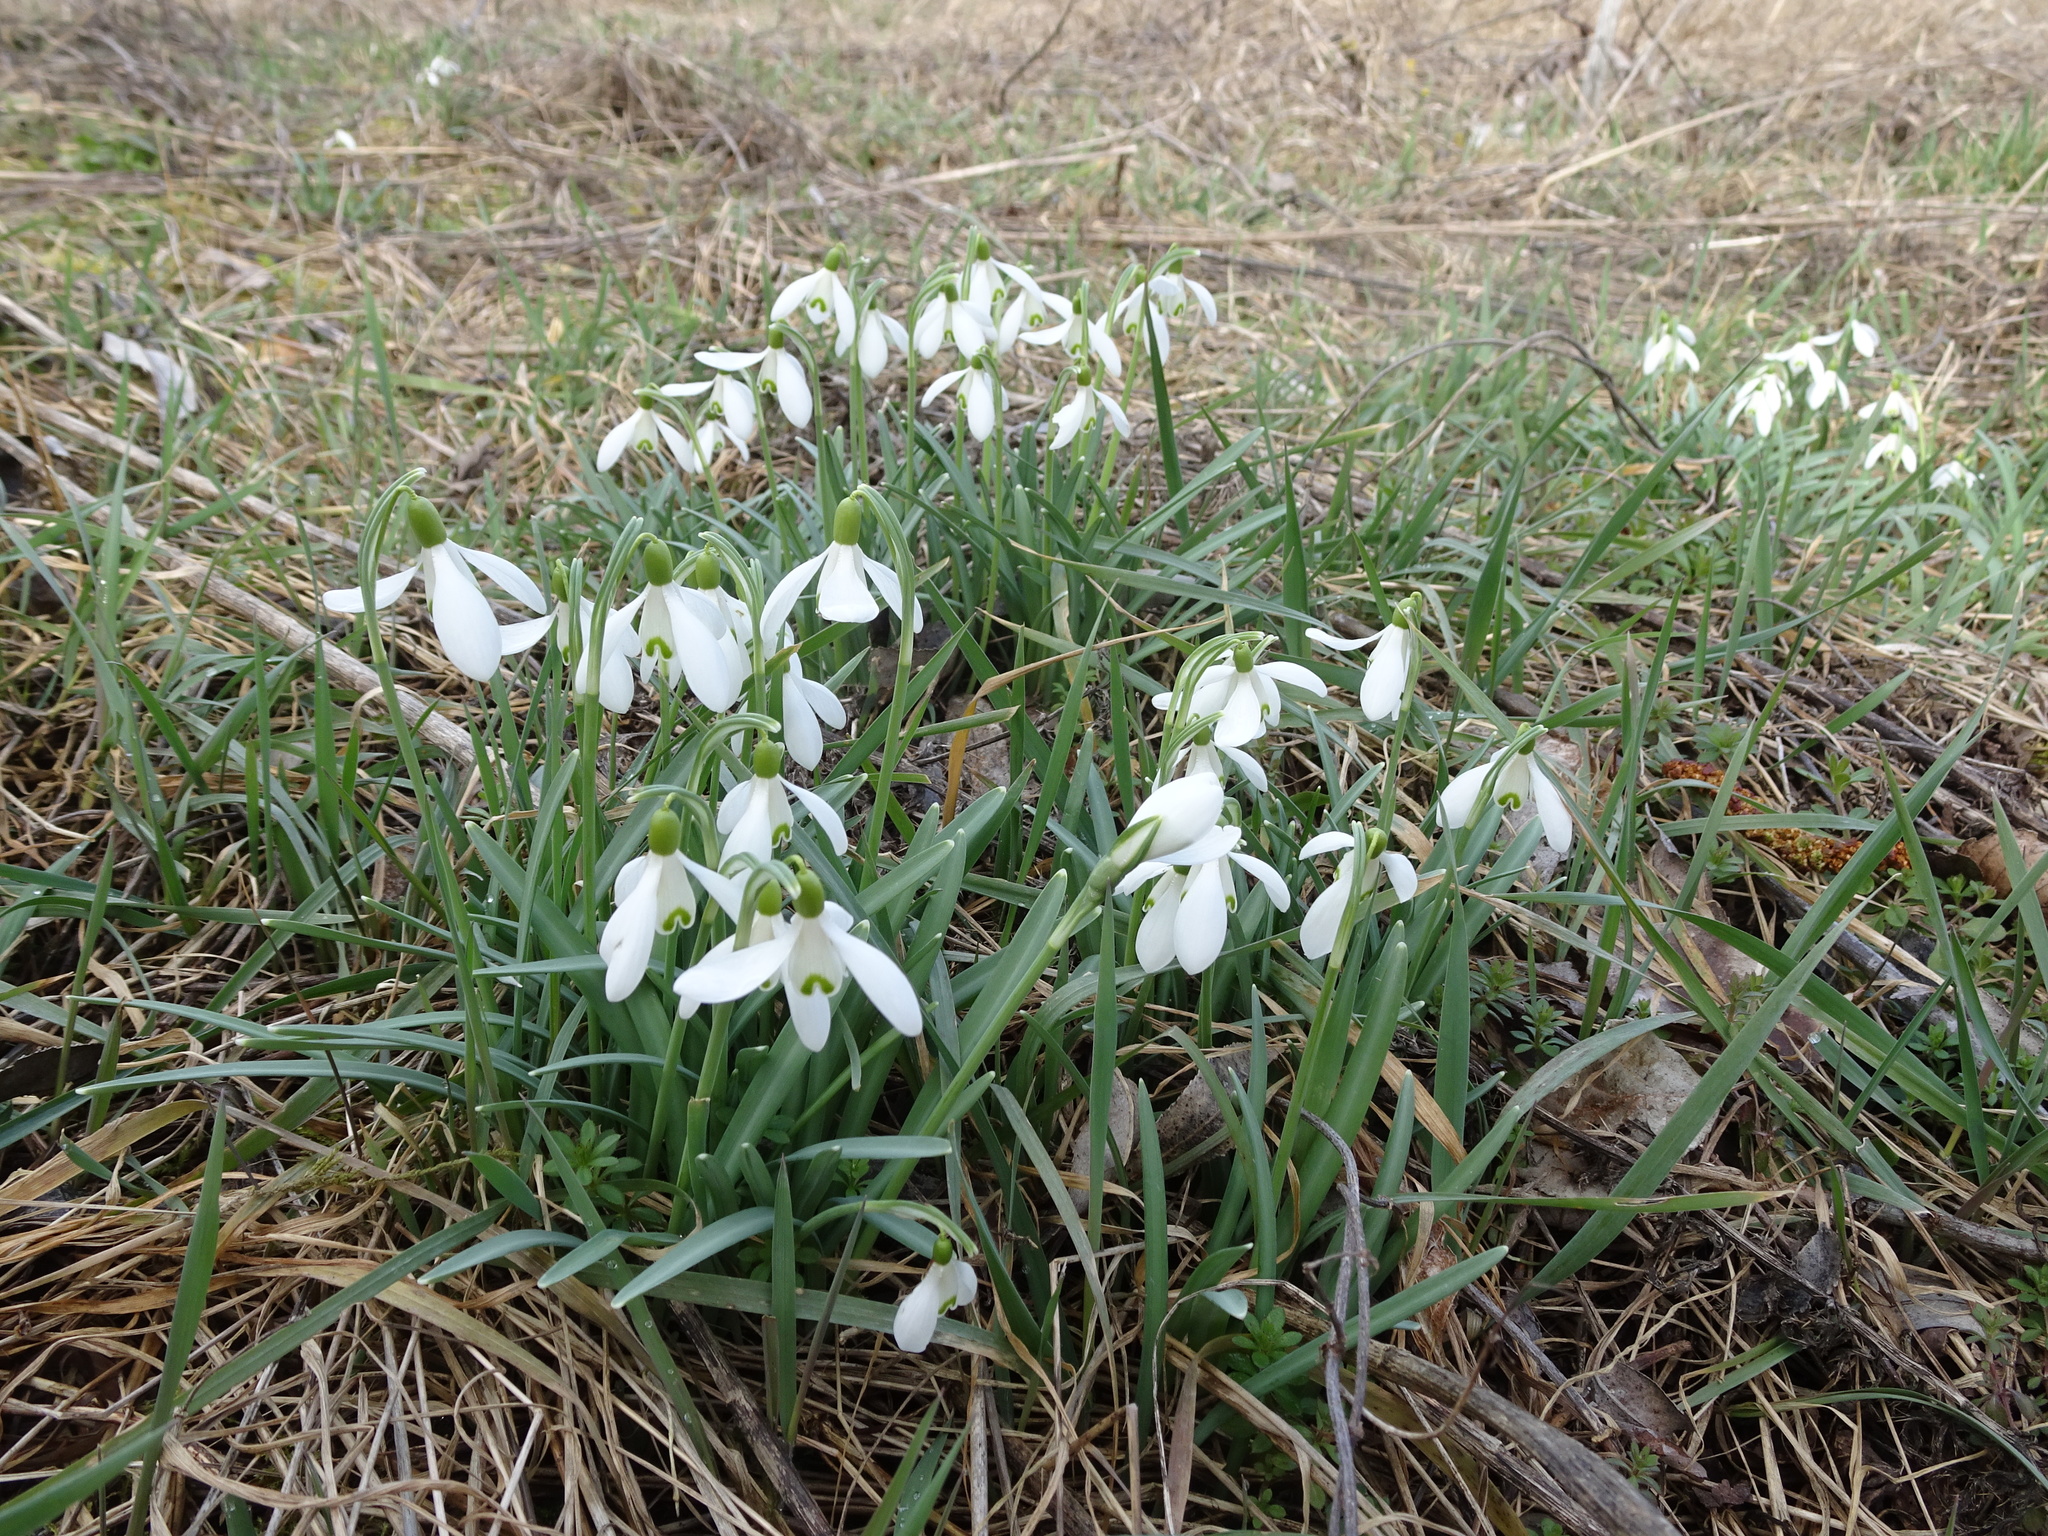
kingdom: Plantae
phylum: Tracheophyta
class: Liliopsida
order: Asparagales
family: Amaryllidaceae
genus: Galanthus
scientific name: Galanthus nivalis
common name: Snowdrop
